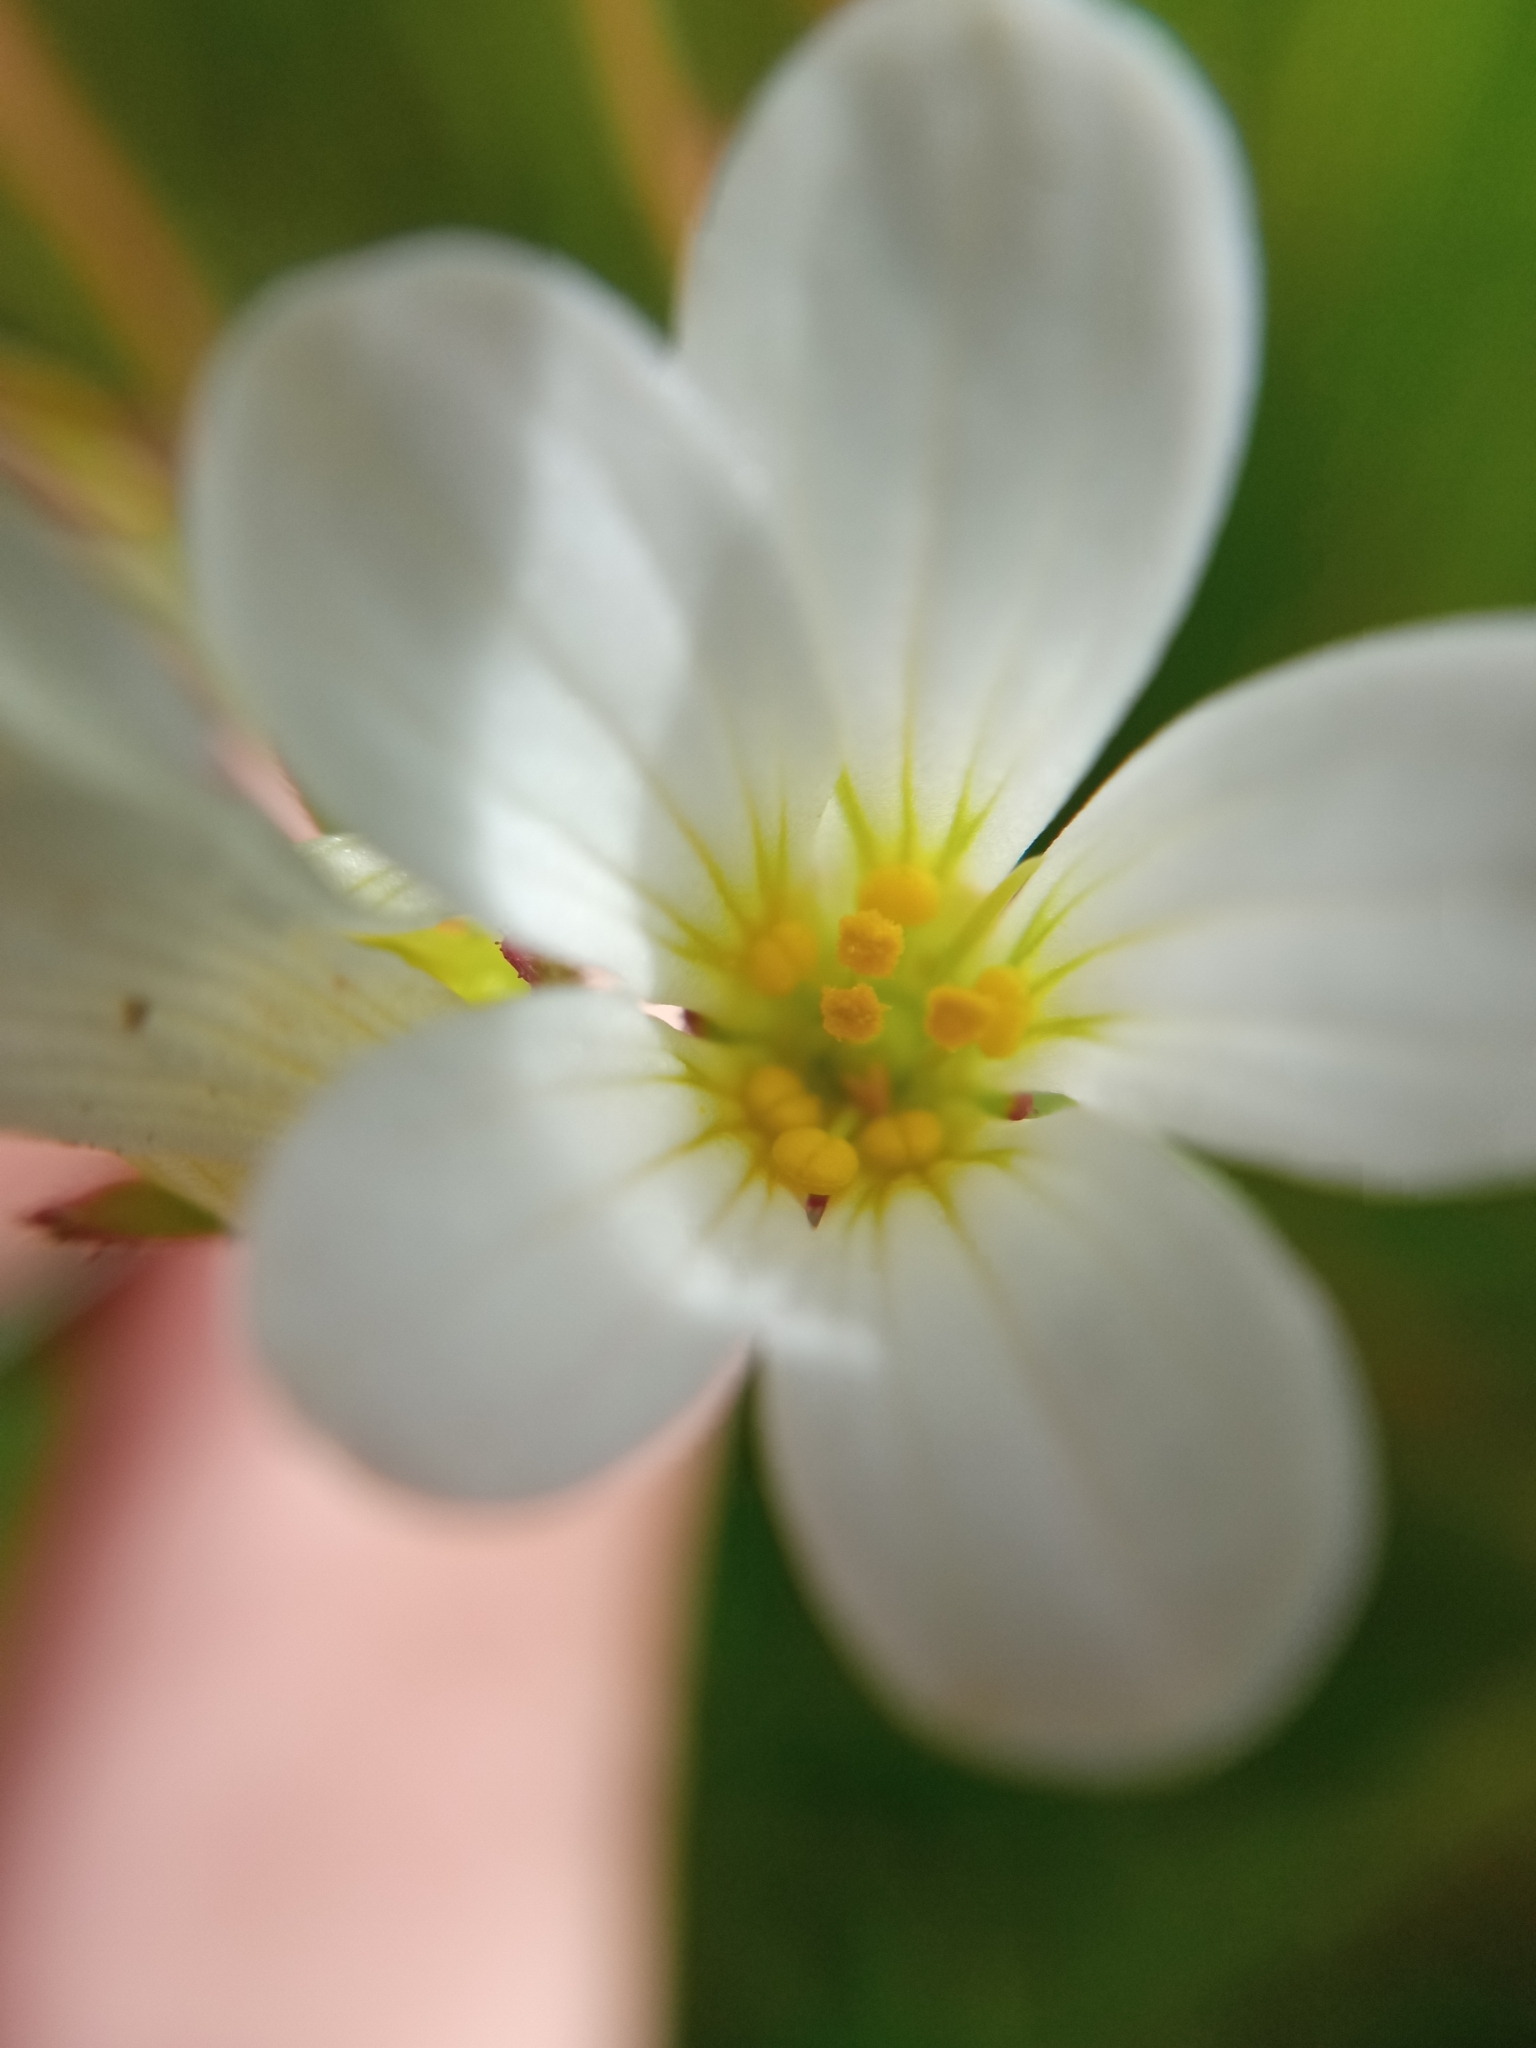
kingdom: Plantae
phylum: Tracheophyta
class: Magnoliopsida
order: Saxifragales
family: Saxifragaceae
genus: Saxifraga
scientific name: Saxifraga granulata
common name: Meadow saxifrage
